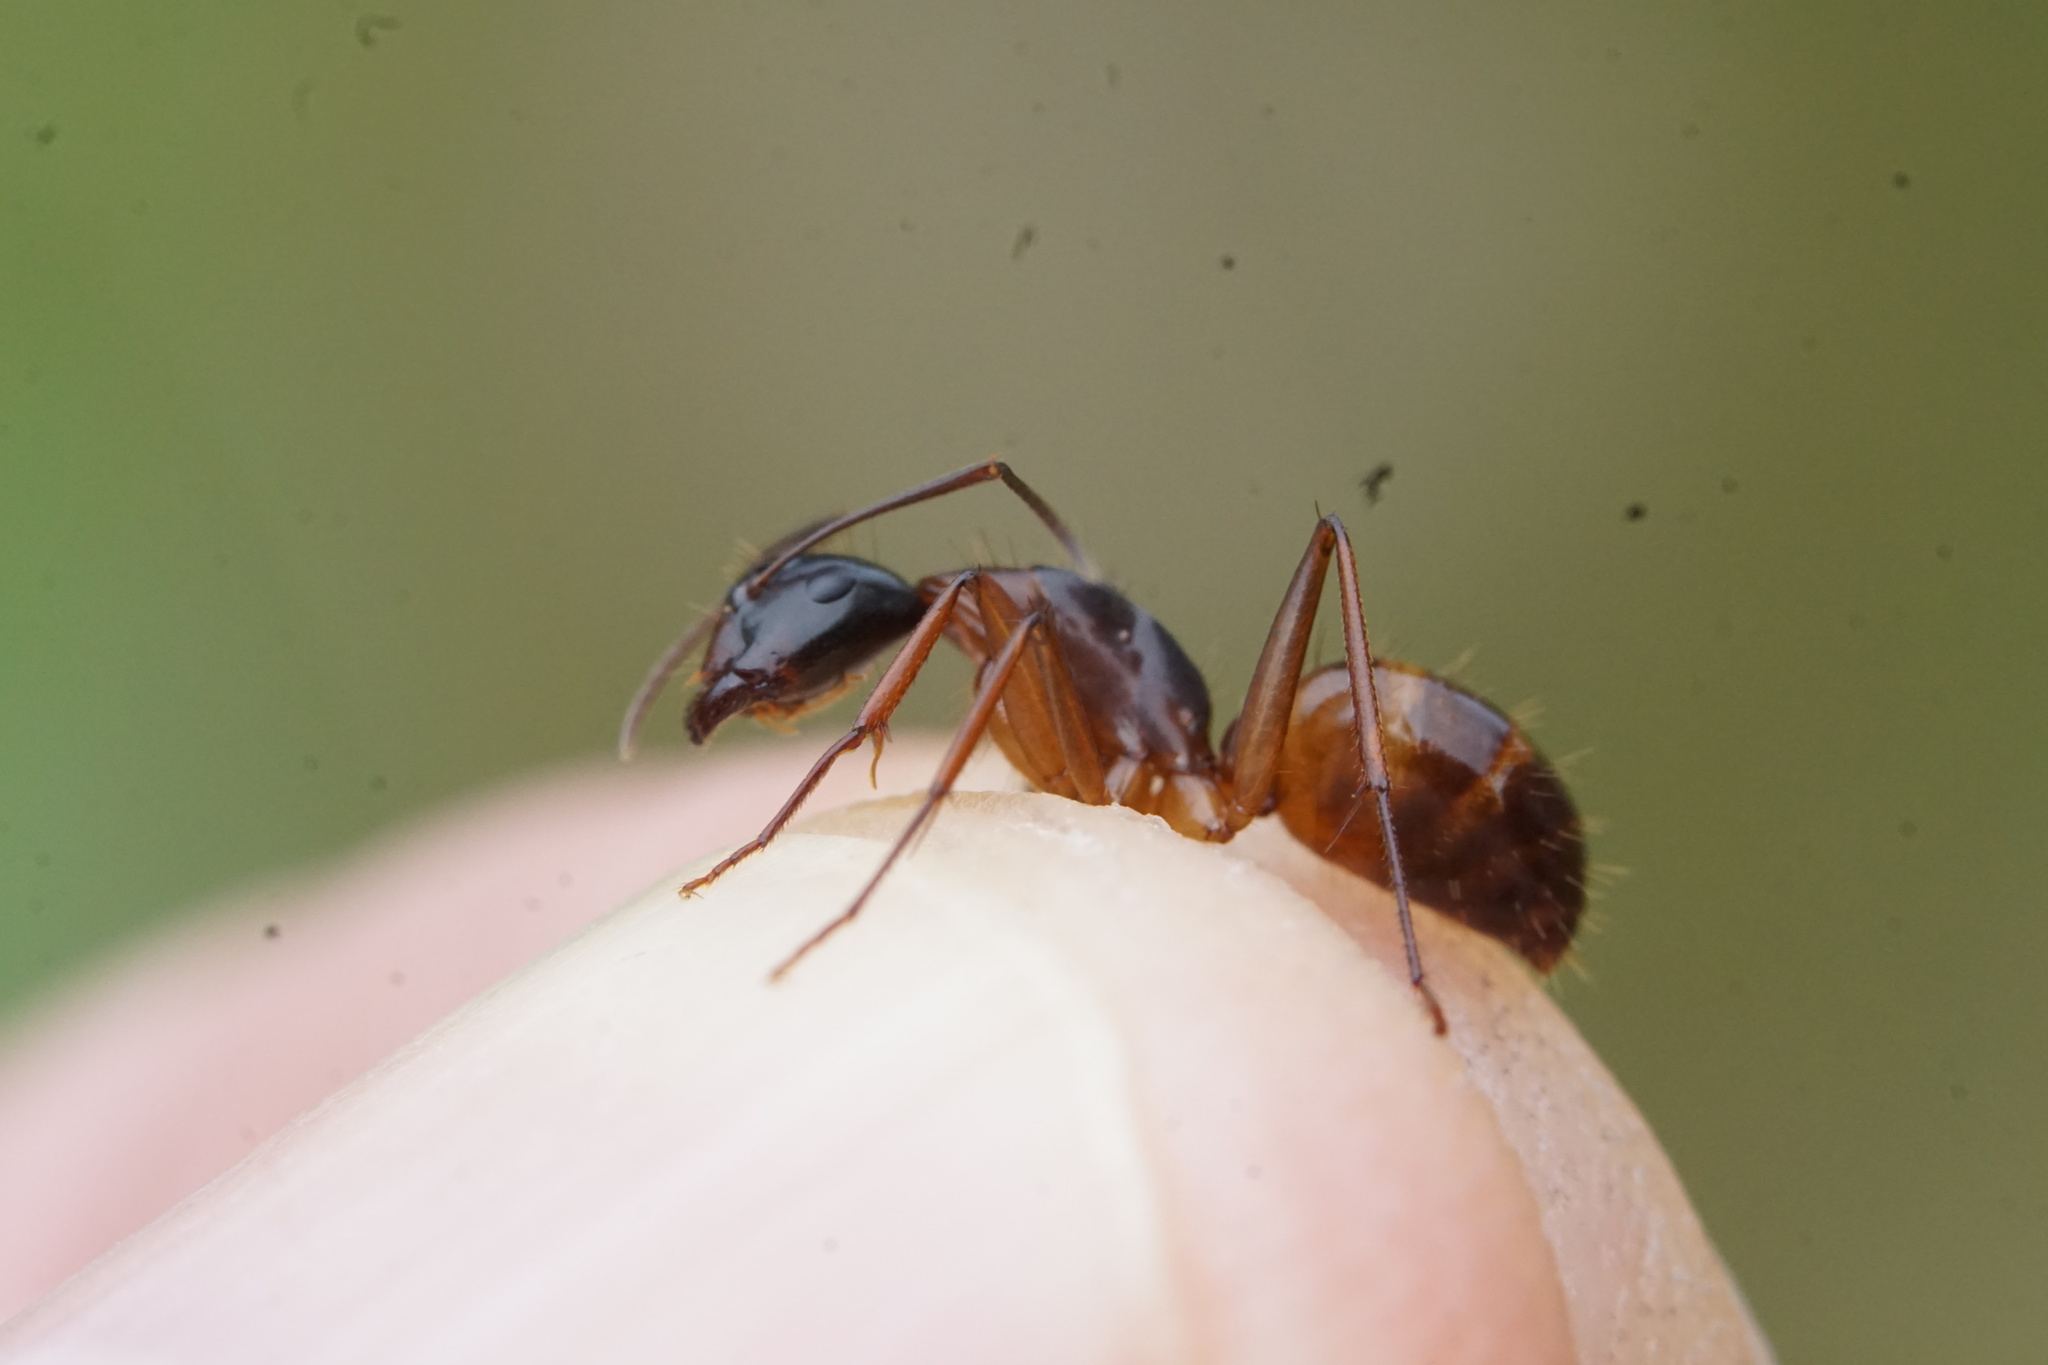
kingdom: Animalia
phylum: Arthropoda
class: Insecta
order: Hymenoptera
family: Formicidae
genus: Camponotus
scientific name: Camponotus americanus
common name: American carpenter ant
